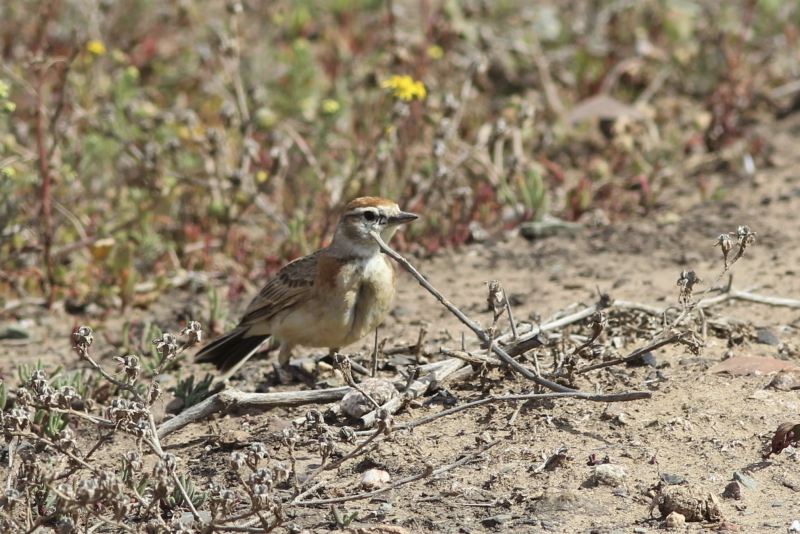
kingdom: Animalia
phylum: Chordata
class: Aves
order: Passeriformes
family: Alaudidae
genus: Calandrella
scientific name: Calandrella cinerea
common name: Red-capped lark
